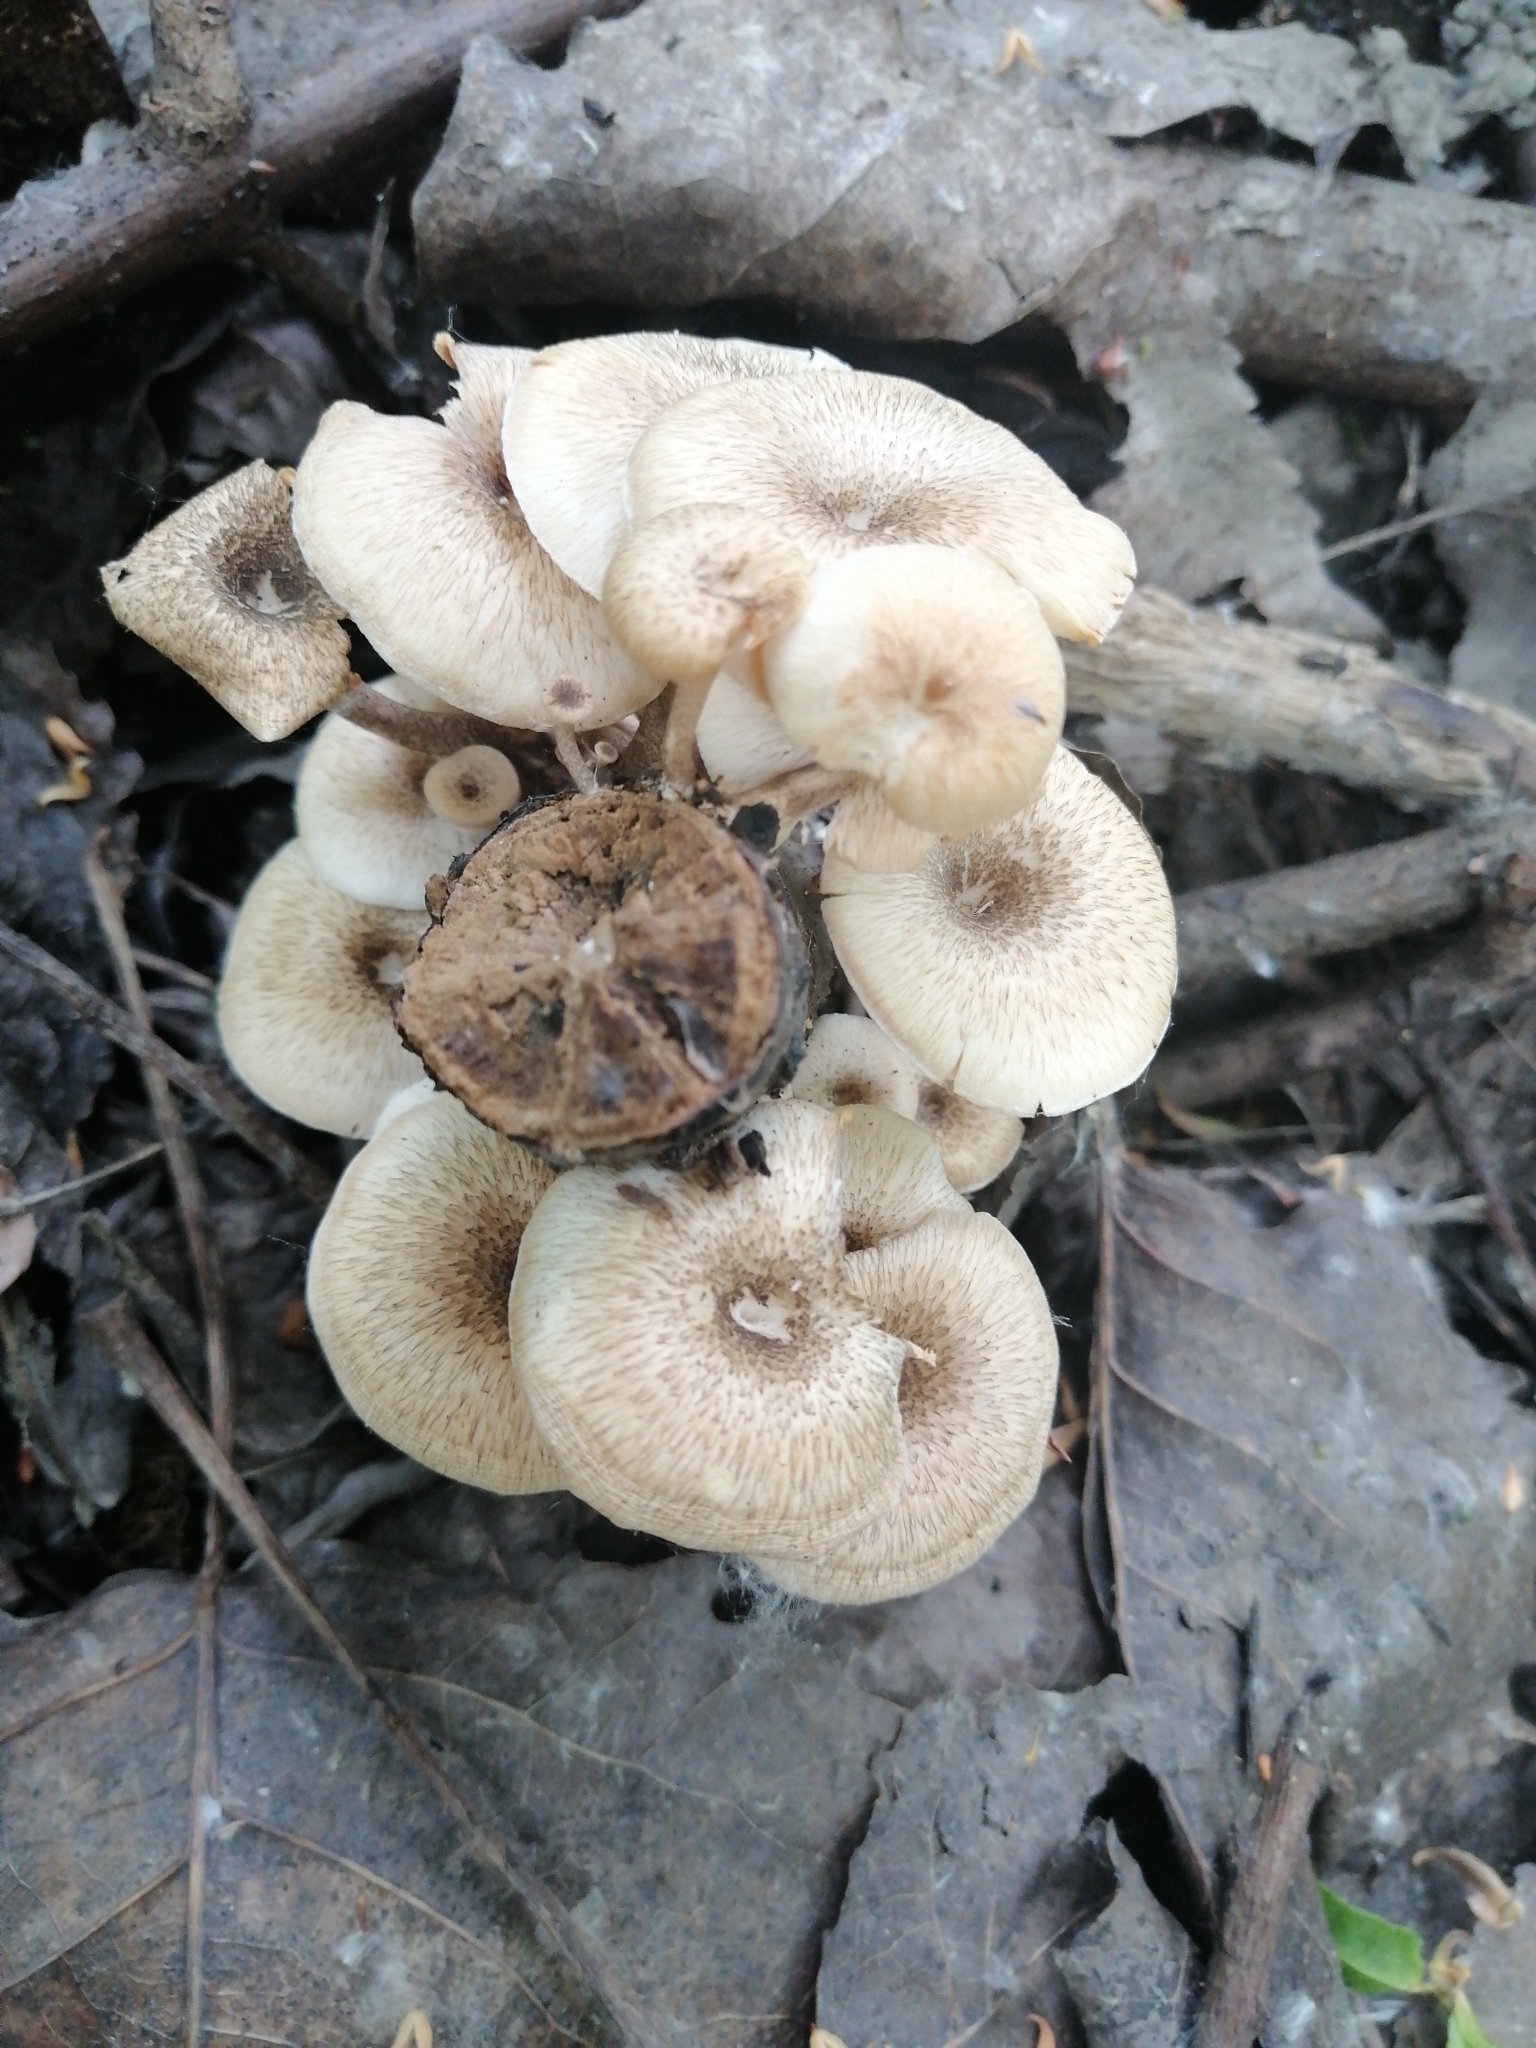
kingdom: Fungi
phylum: Basidiomycota
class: Agaricomycetes
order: Polyporales
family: Polyporaceae
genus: Lentinus
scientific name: Lentinus tigrinus
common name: Tiger sawgill
